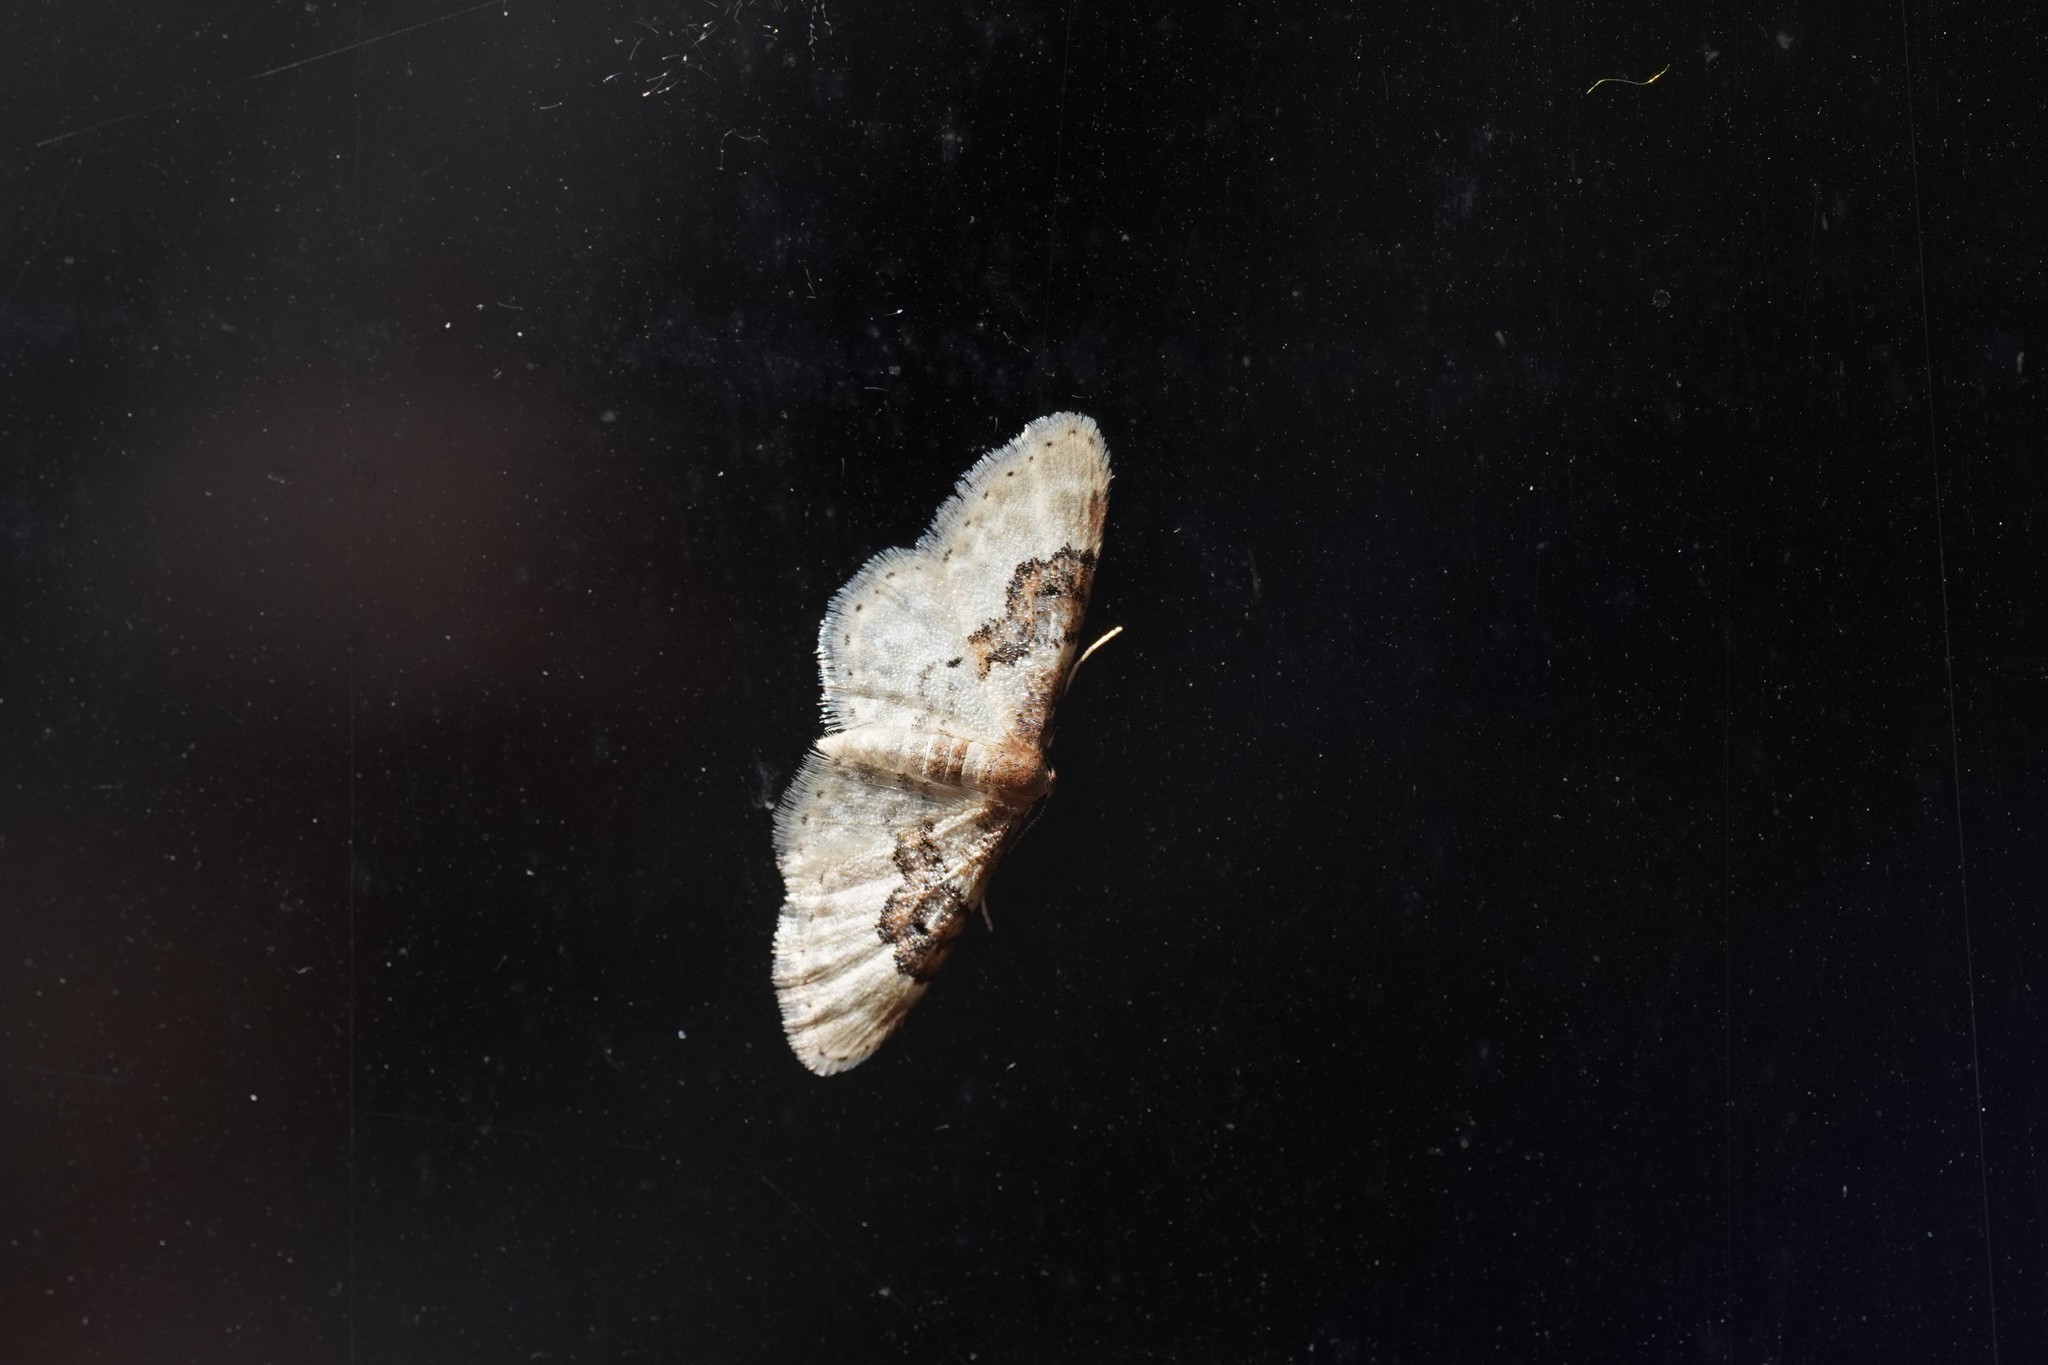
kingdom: Animalia
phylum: Arthropoda
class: Insecta
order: Lepidoptera
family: Geometridae
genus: Idaea
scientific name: Idaea rusticata
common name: Least carpet
